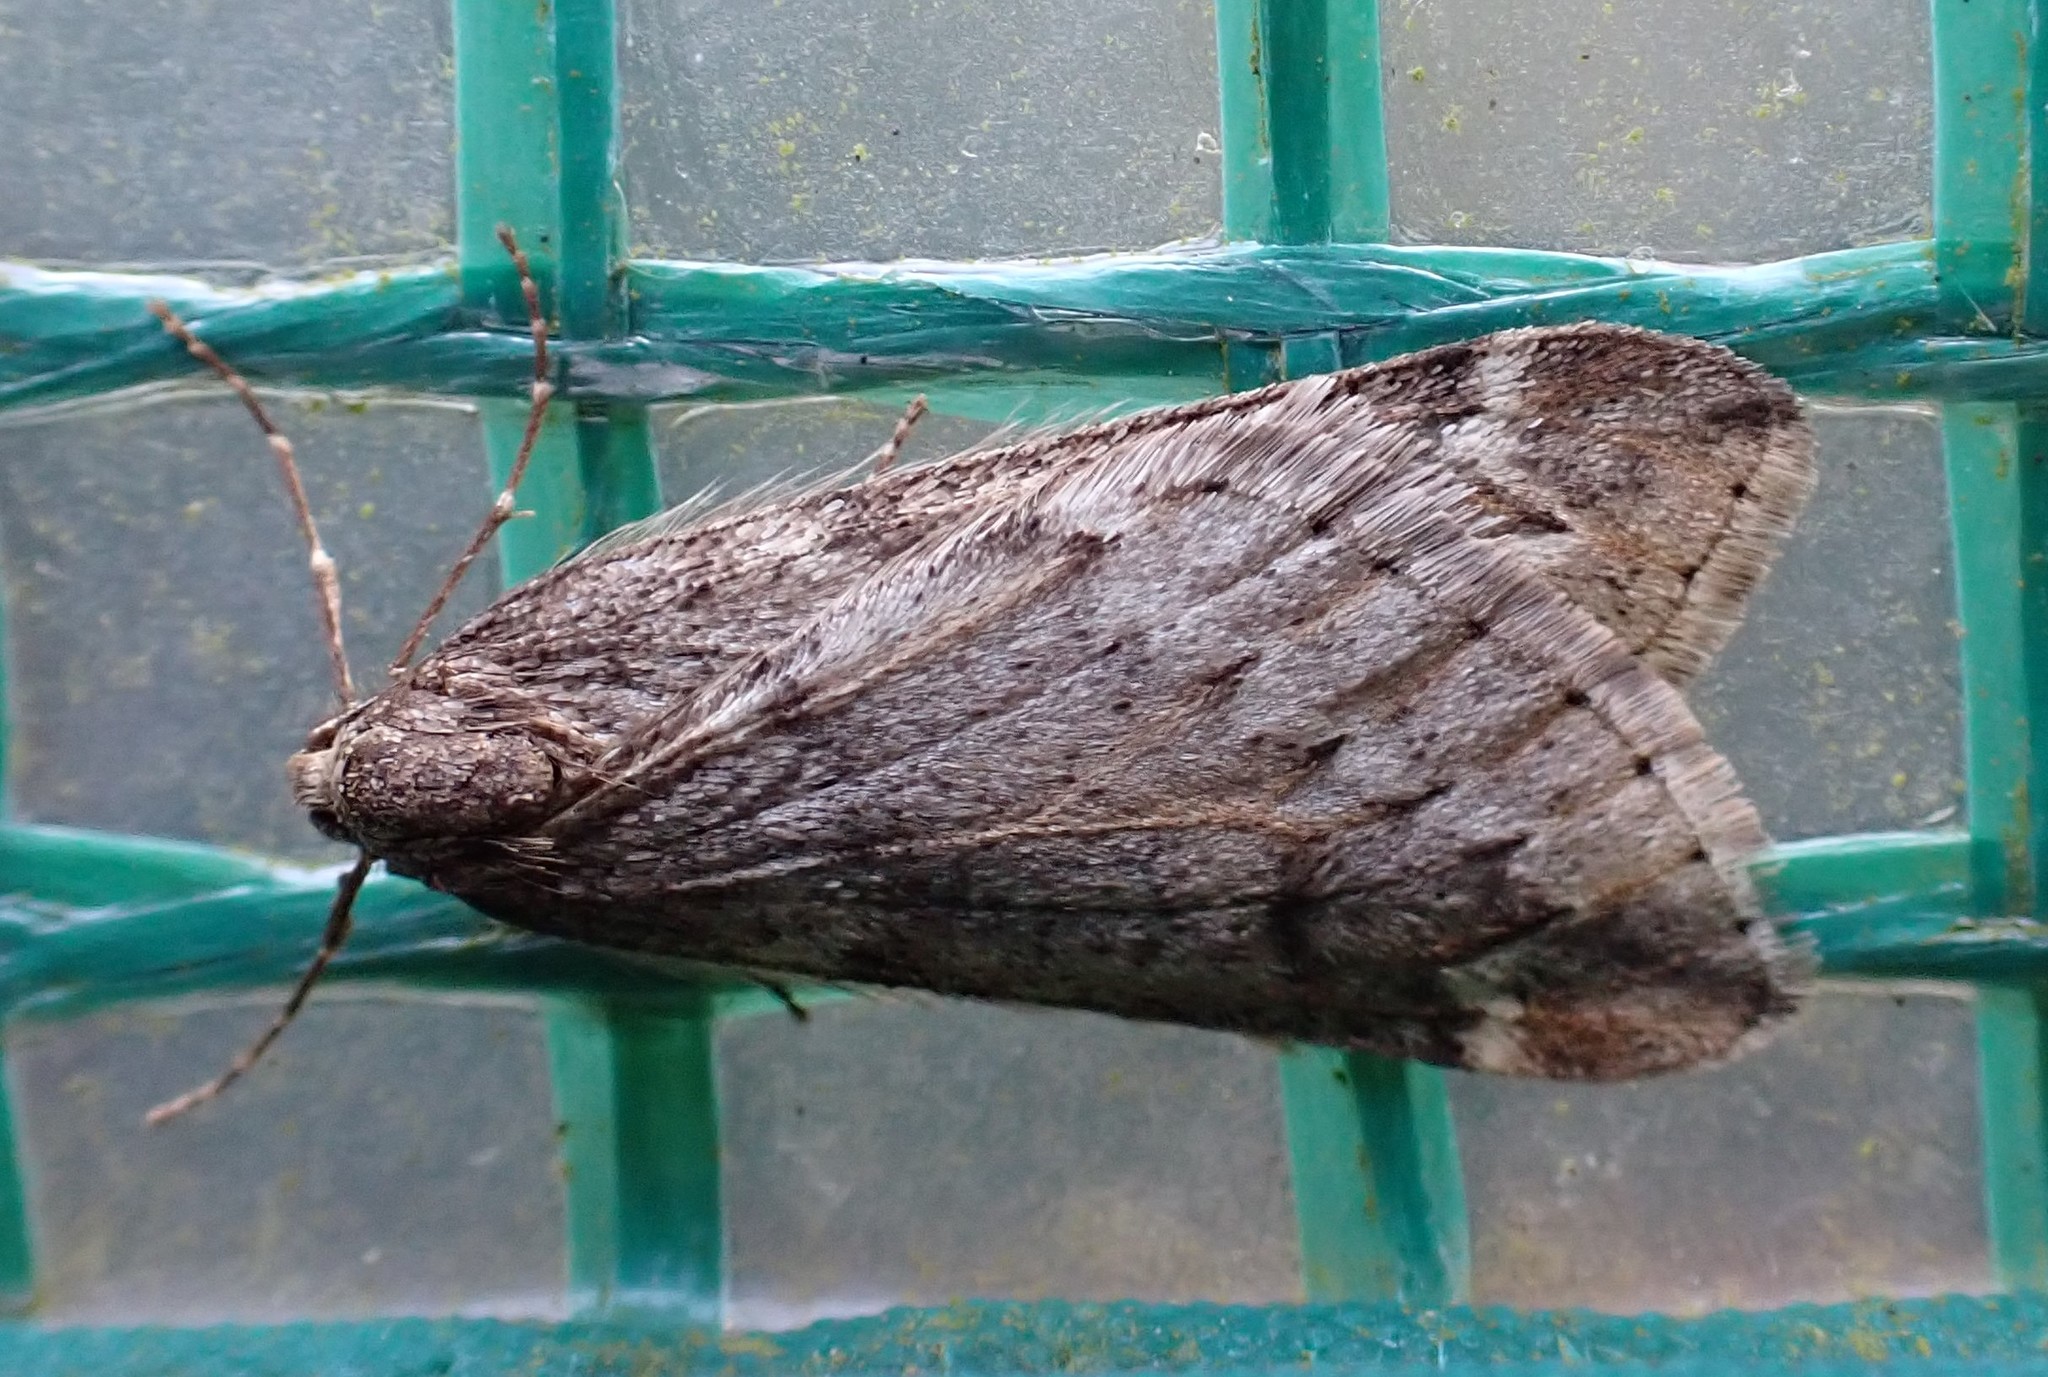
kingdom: Animalia
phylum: Arthropoda
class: Insecta
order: Lepidoptera
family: Geometridae
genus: Alsophila
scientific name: Alsophila aescularia
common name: March moth
